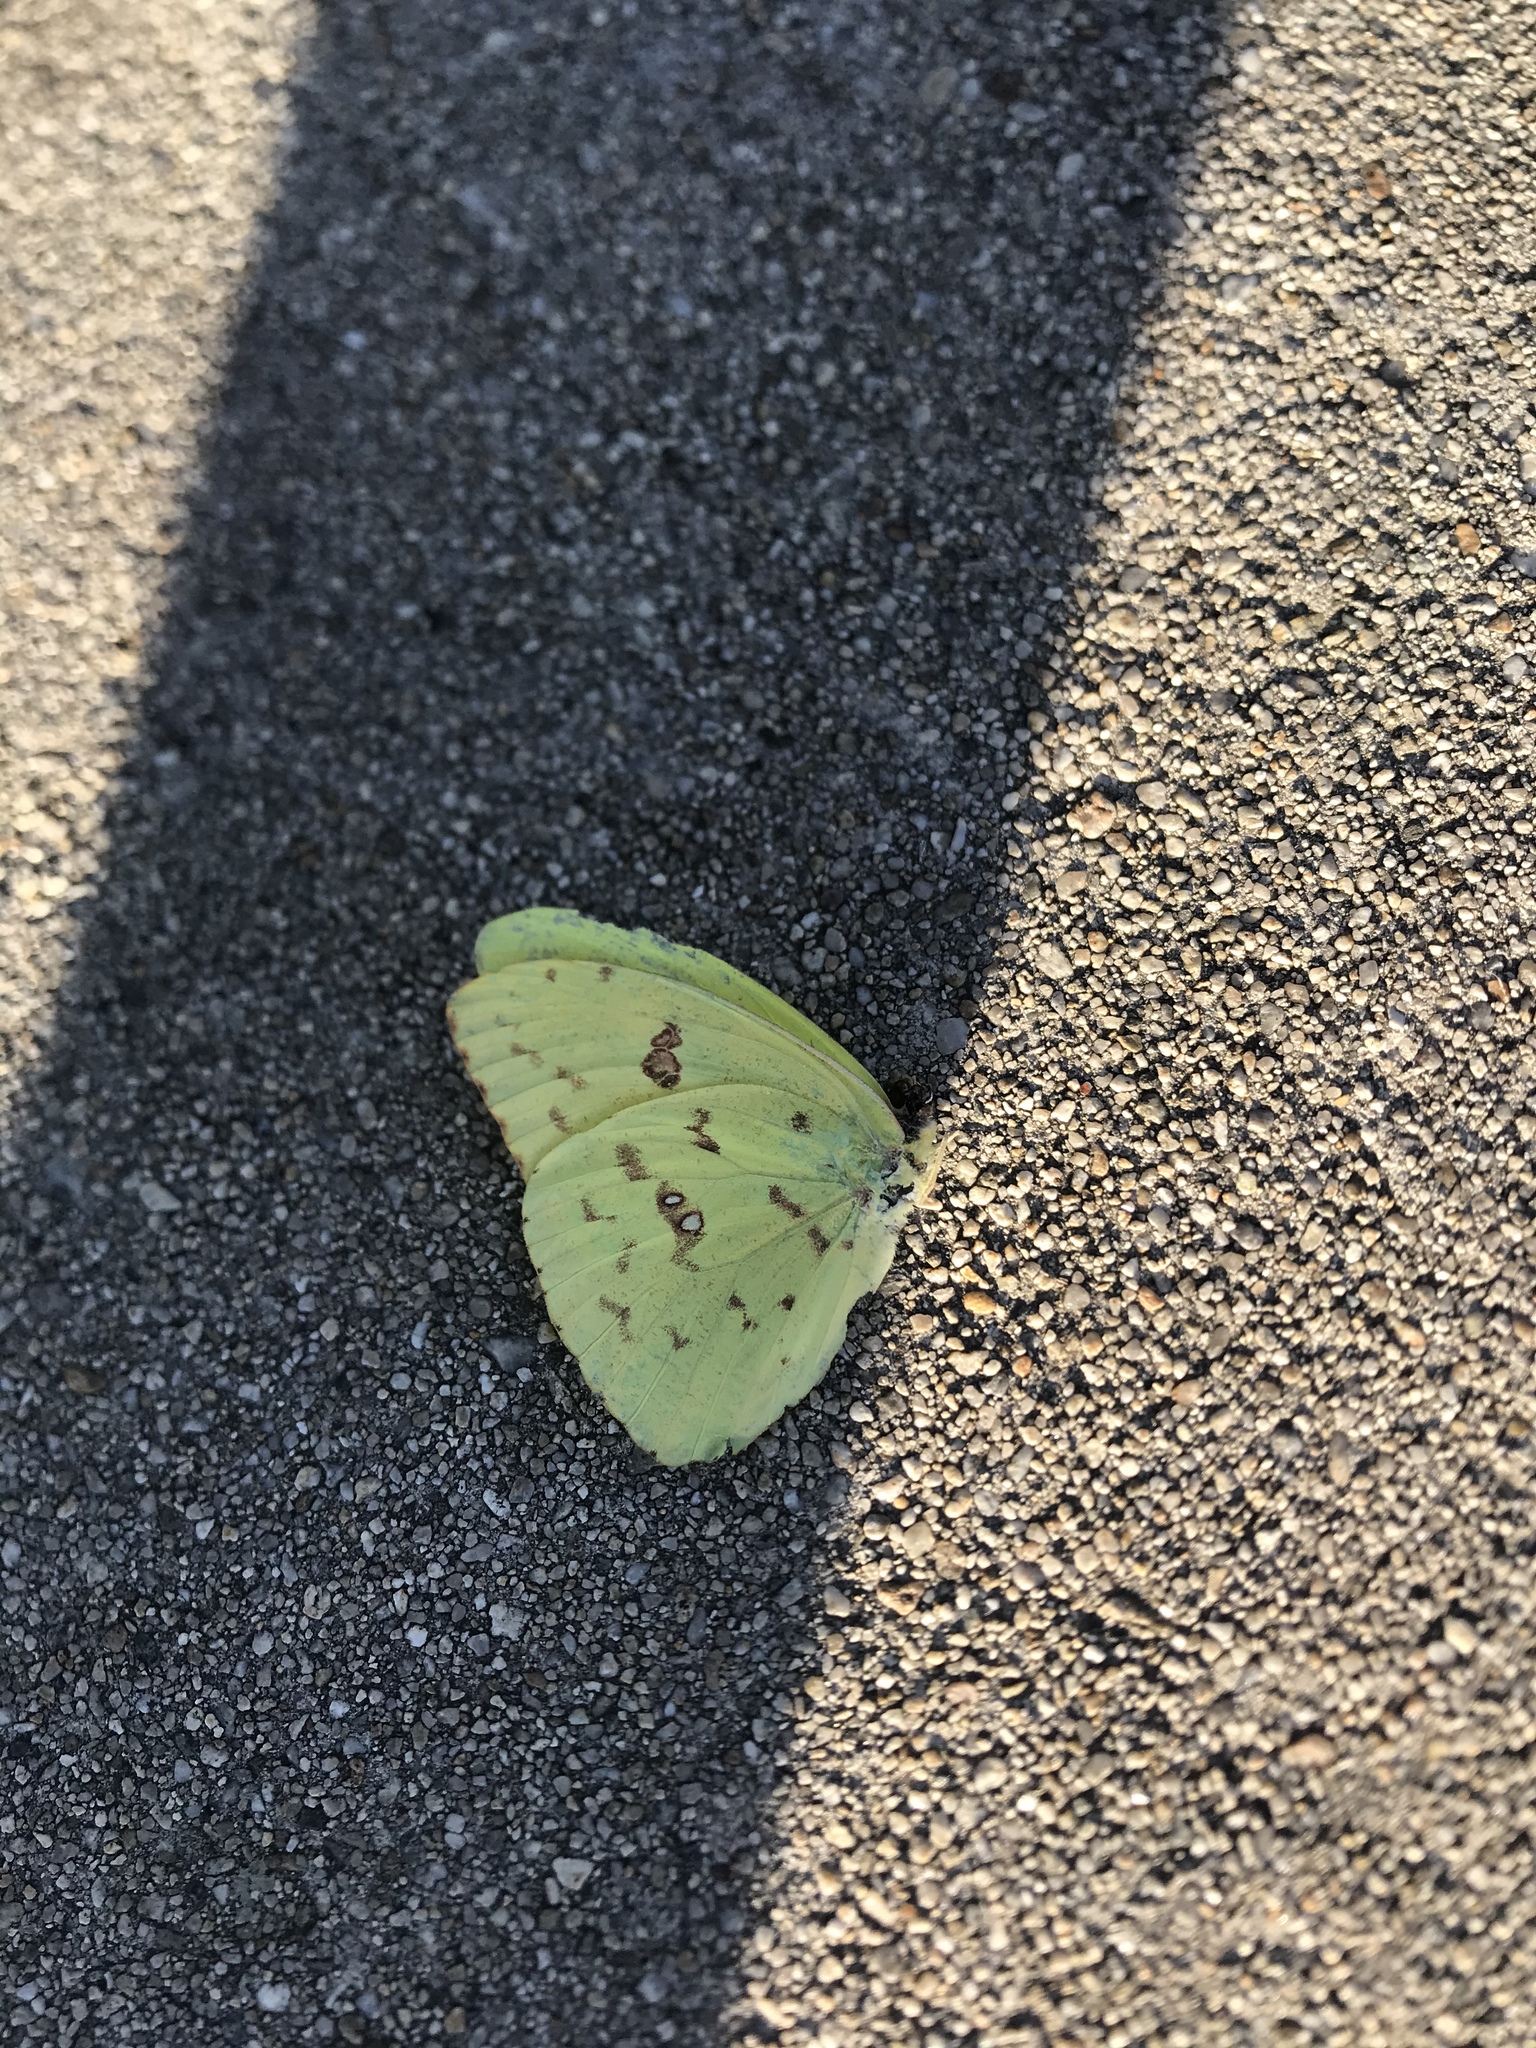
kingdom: Animalia
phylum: Arthropoda
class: Insecta
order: Lepidoptera
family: Pieridae
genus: Phoebis
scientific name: Phoebis sennae
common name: Cloudless sulphur
